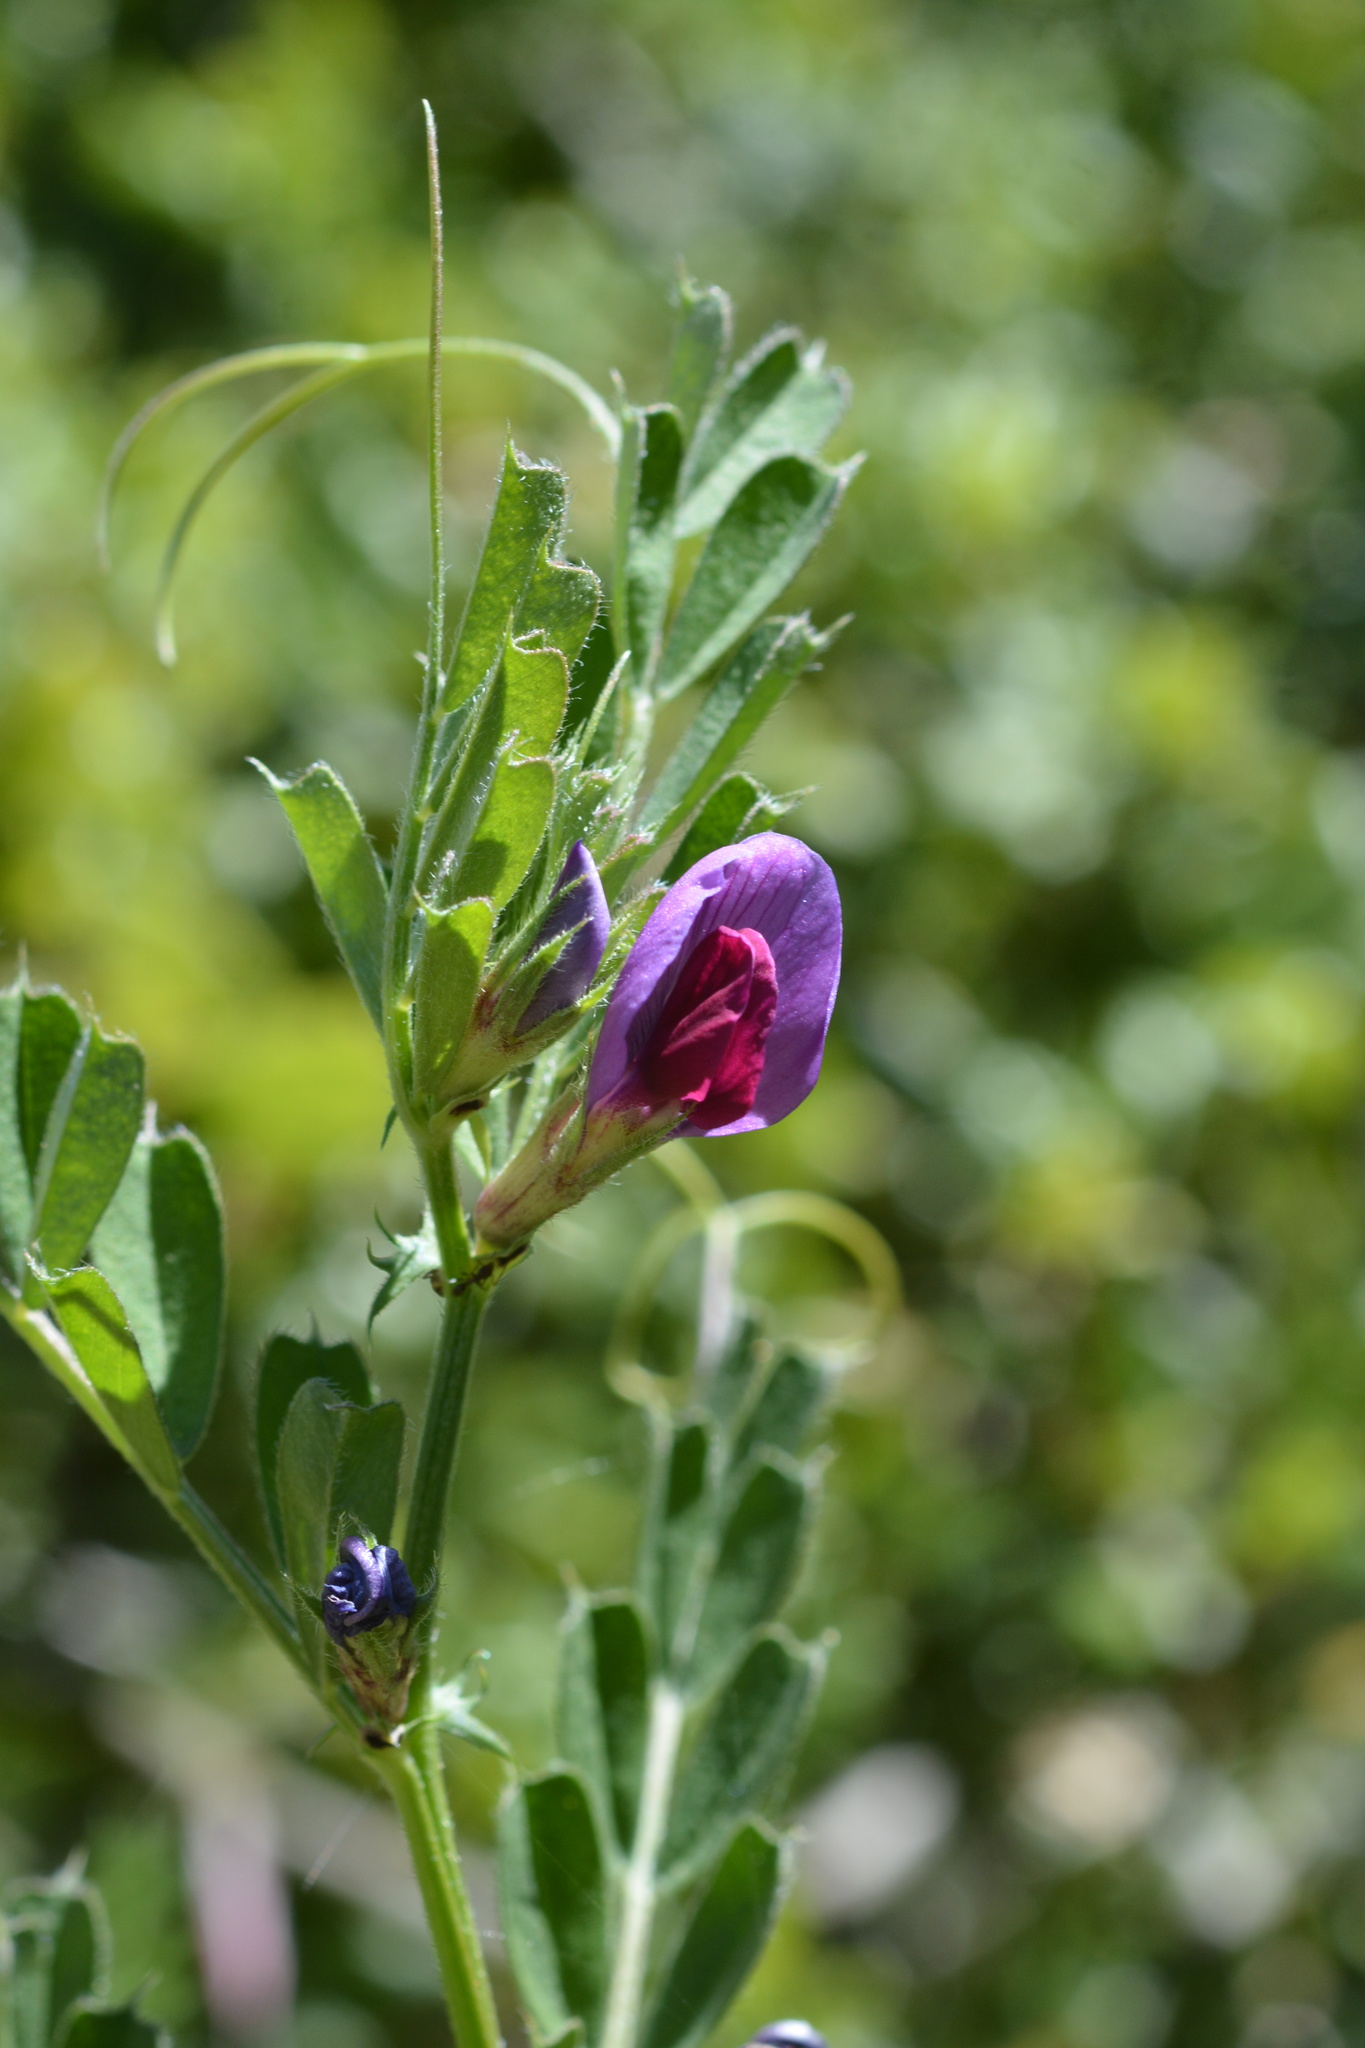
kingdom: Plantae
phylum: Tracheophyta
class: Magnoliopsida
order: Fabales
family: Fabaceae
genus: Vicia
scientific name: Vicia sativa
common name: Garden vetch
